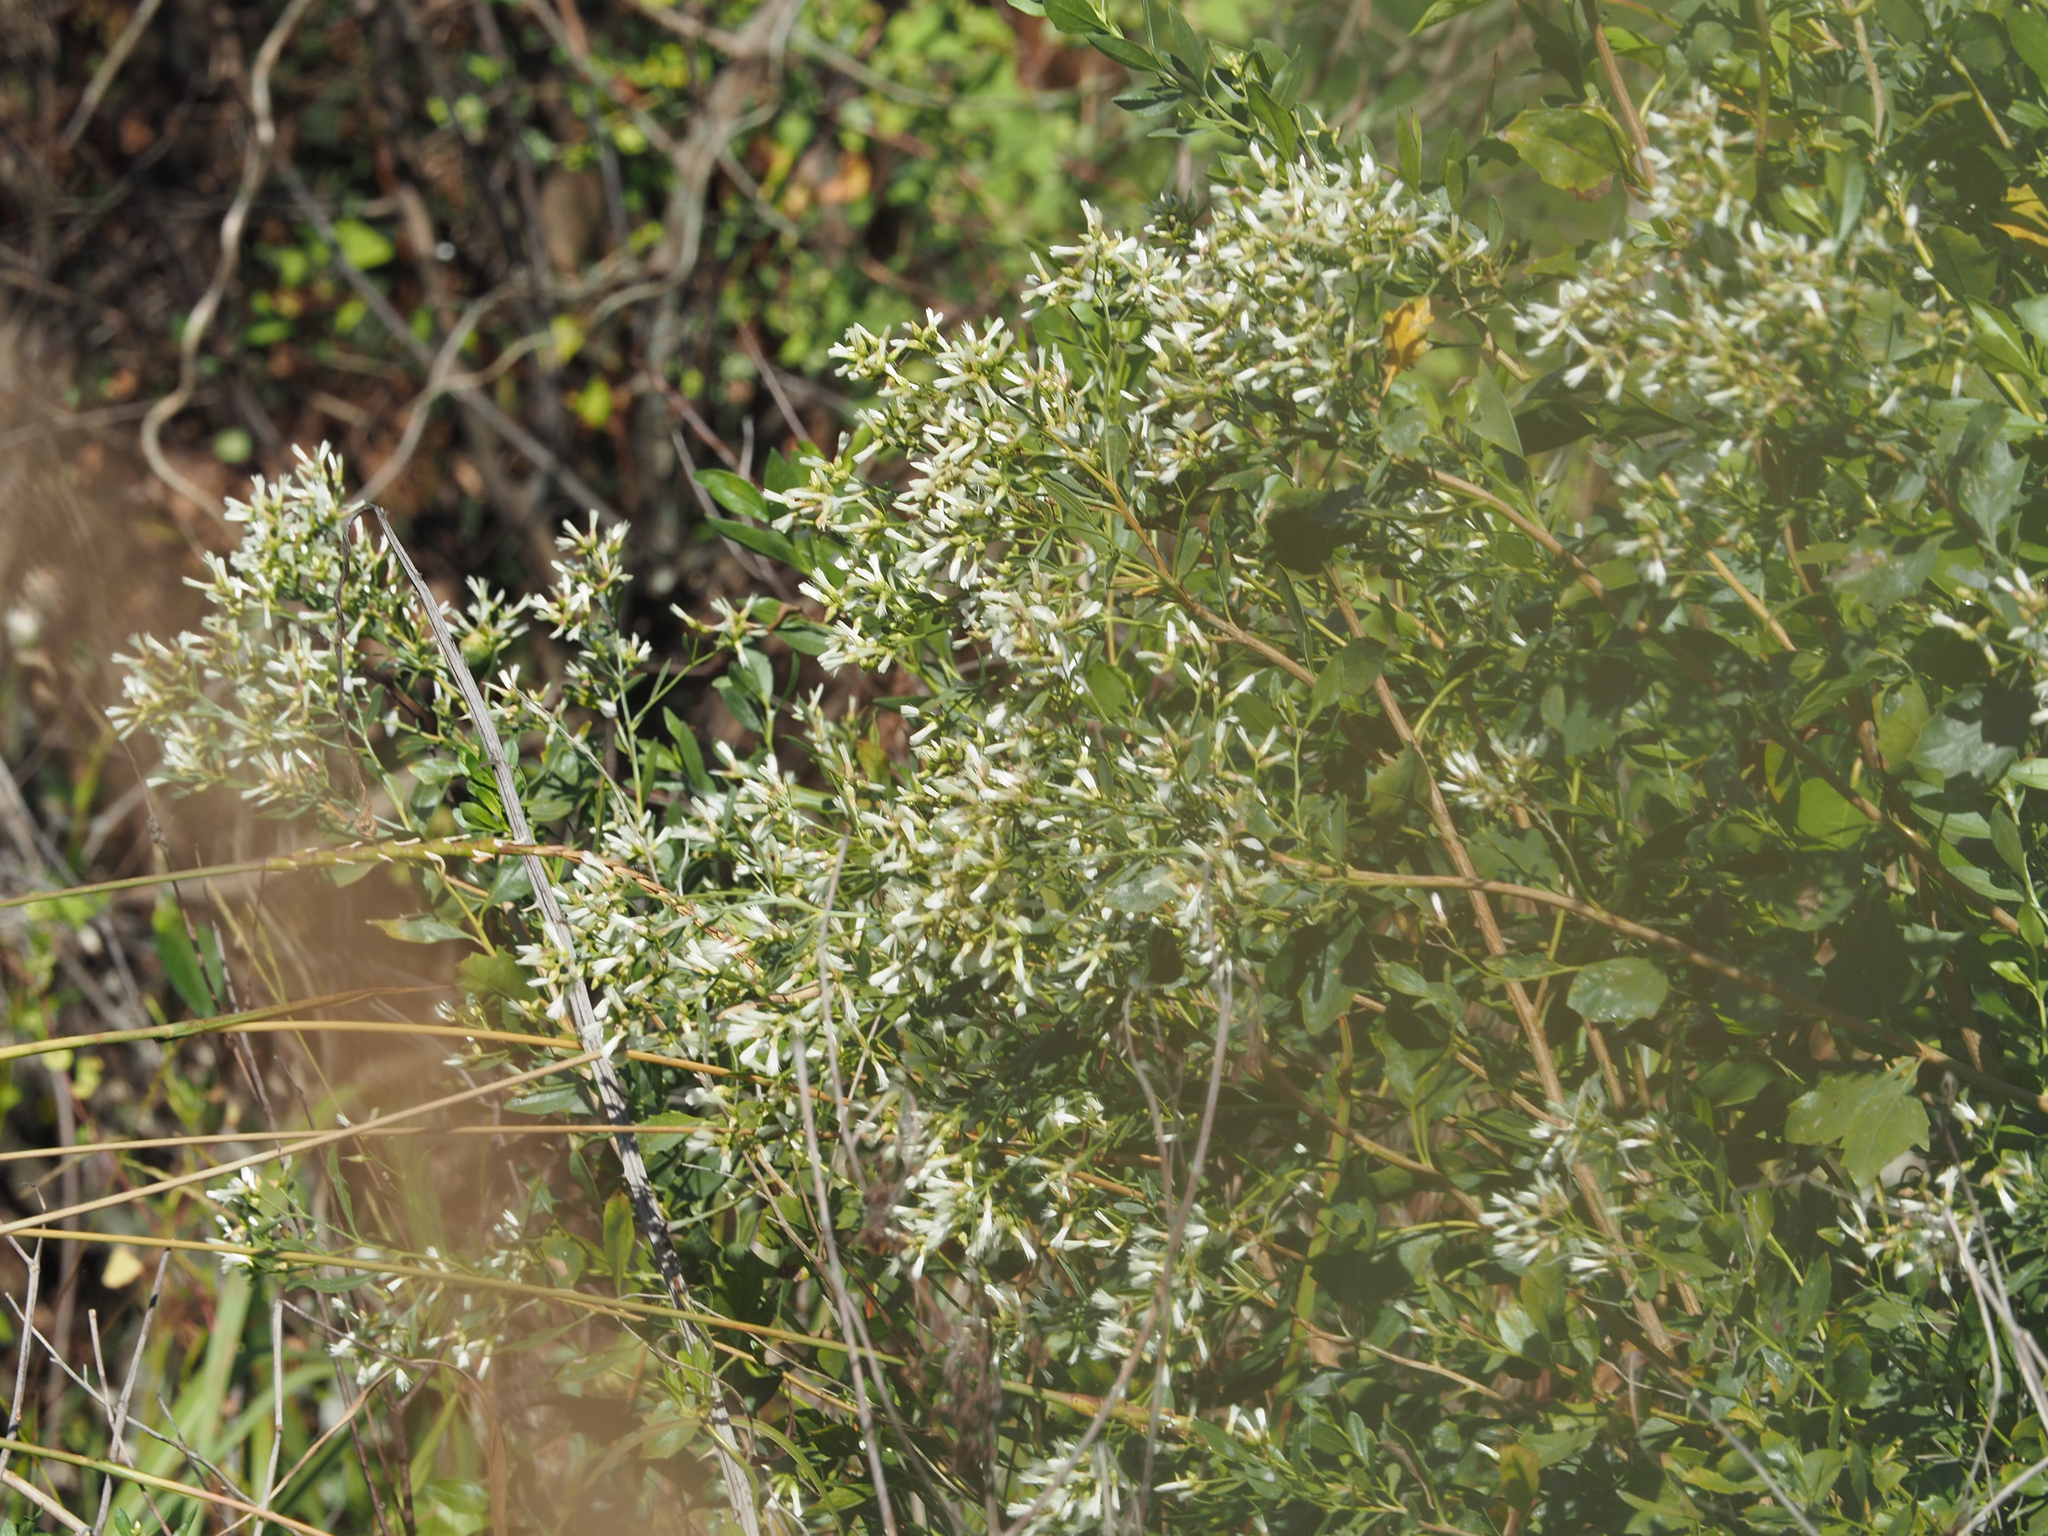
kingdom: Plantae
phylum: Tracheophyta
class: Magnoliopsida
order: Asterales
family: Asteraceae
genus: Baccharis
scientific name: Baccharis halimifolia
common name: Eastern baccharis
